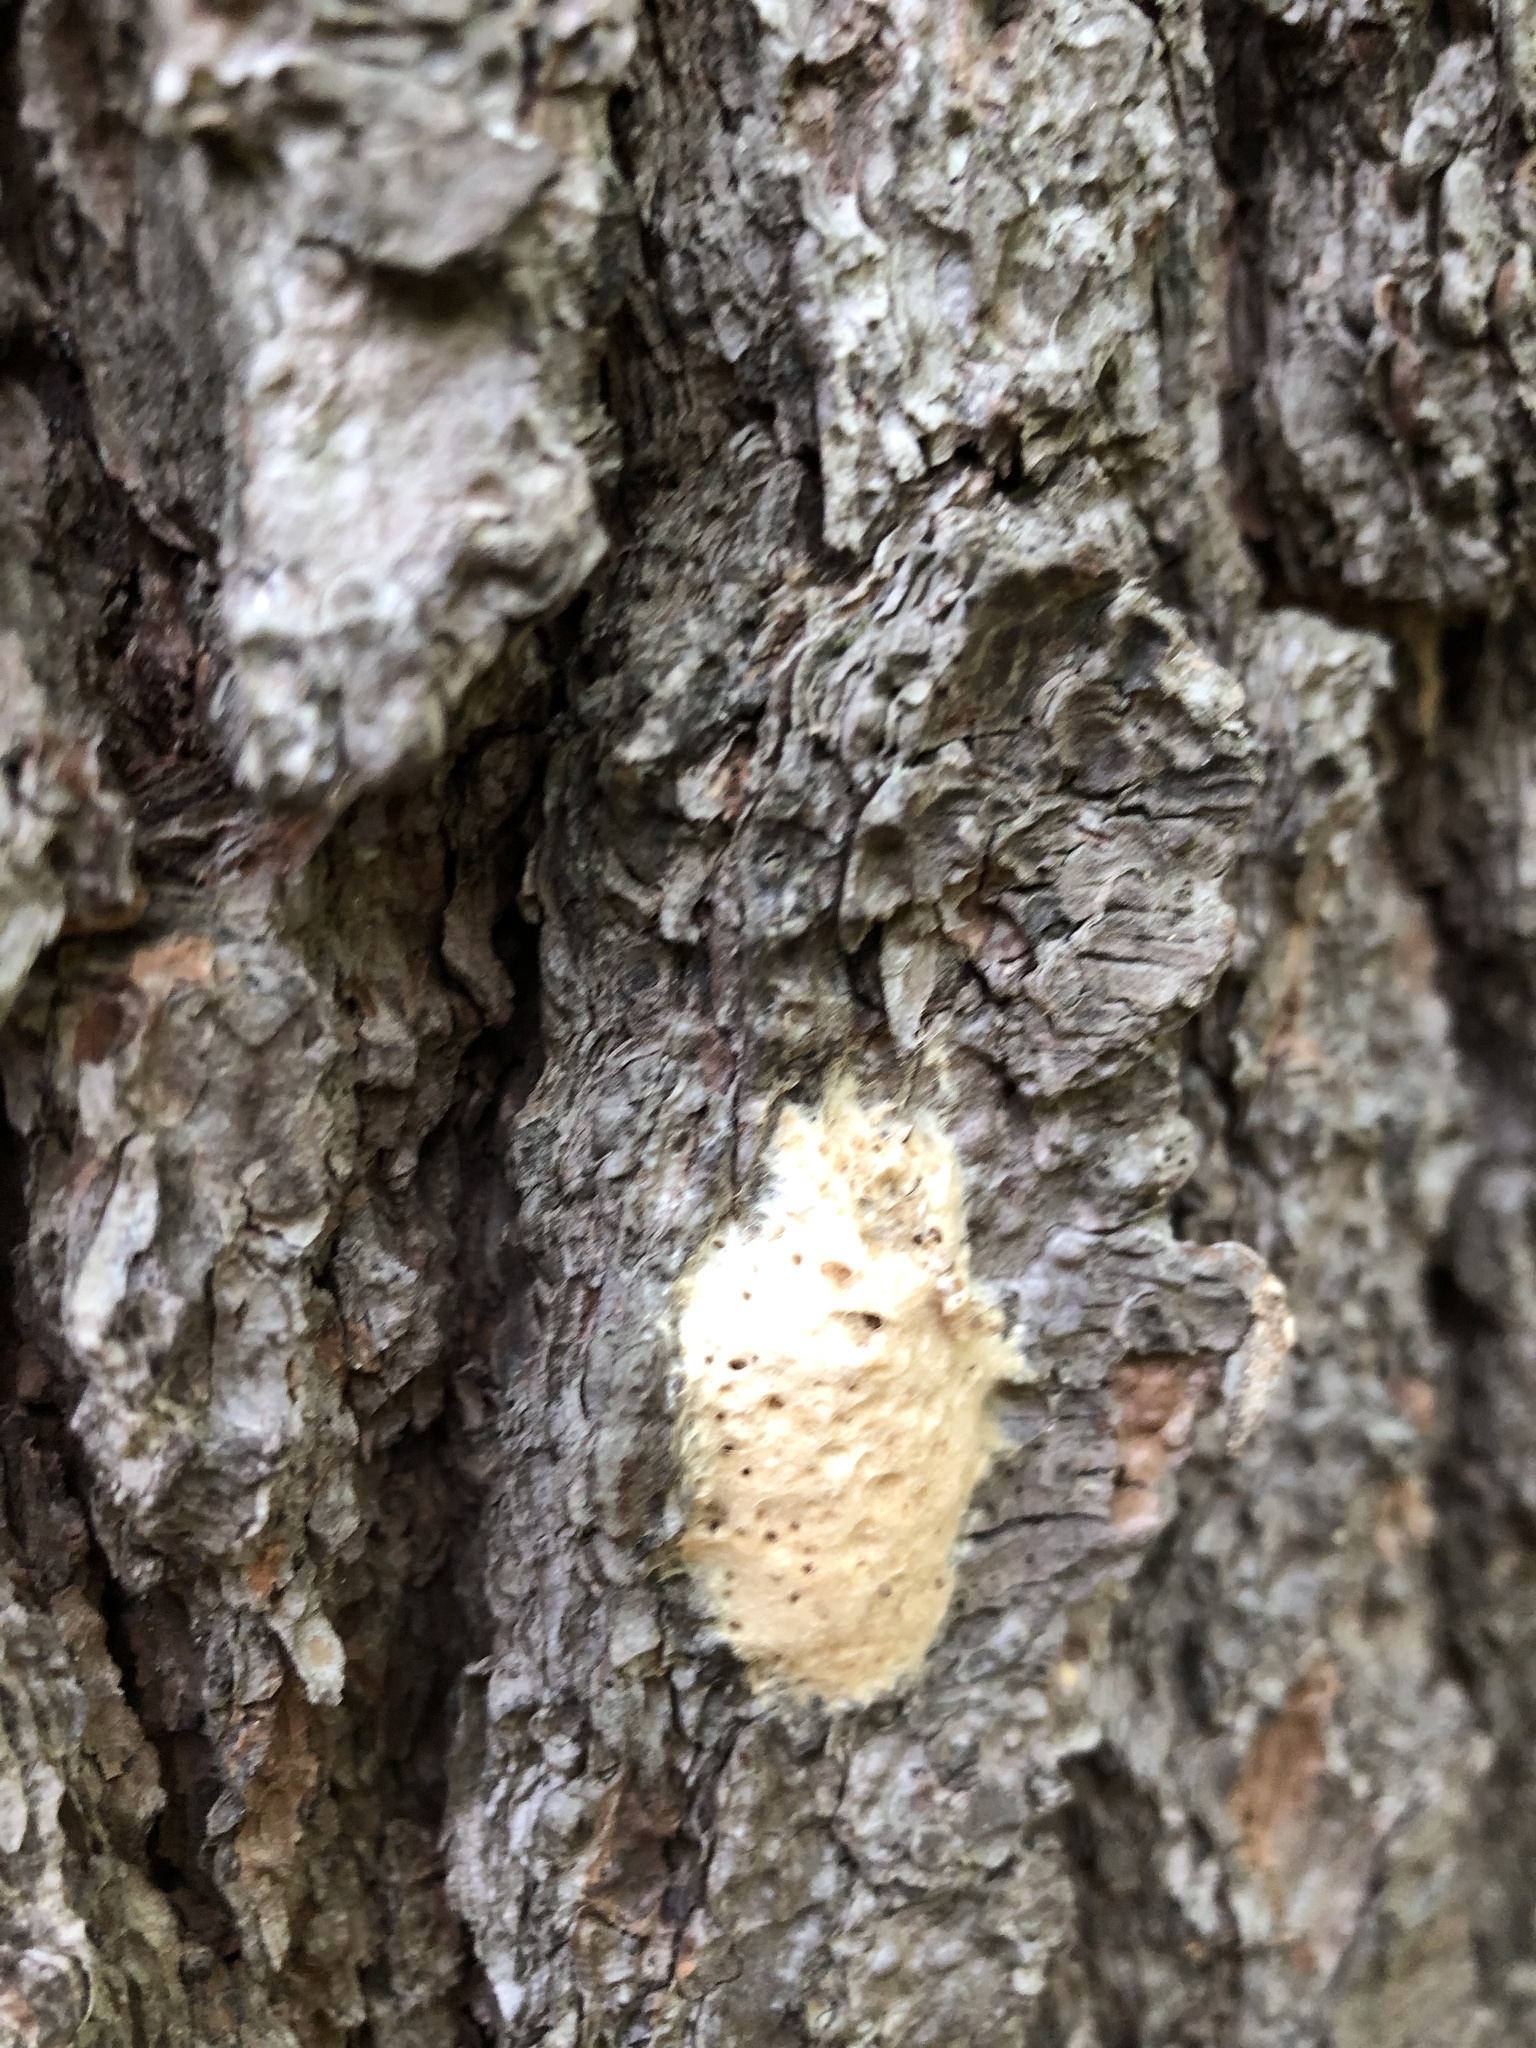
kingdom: Animalia
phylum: Arthropoda
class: Insecta
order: Lepidoptera
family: Erebidae
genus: Lymantria
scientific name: Lymantria dispar
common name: Gypsy moth
